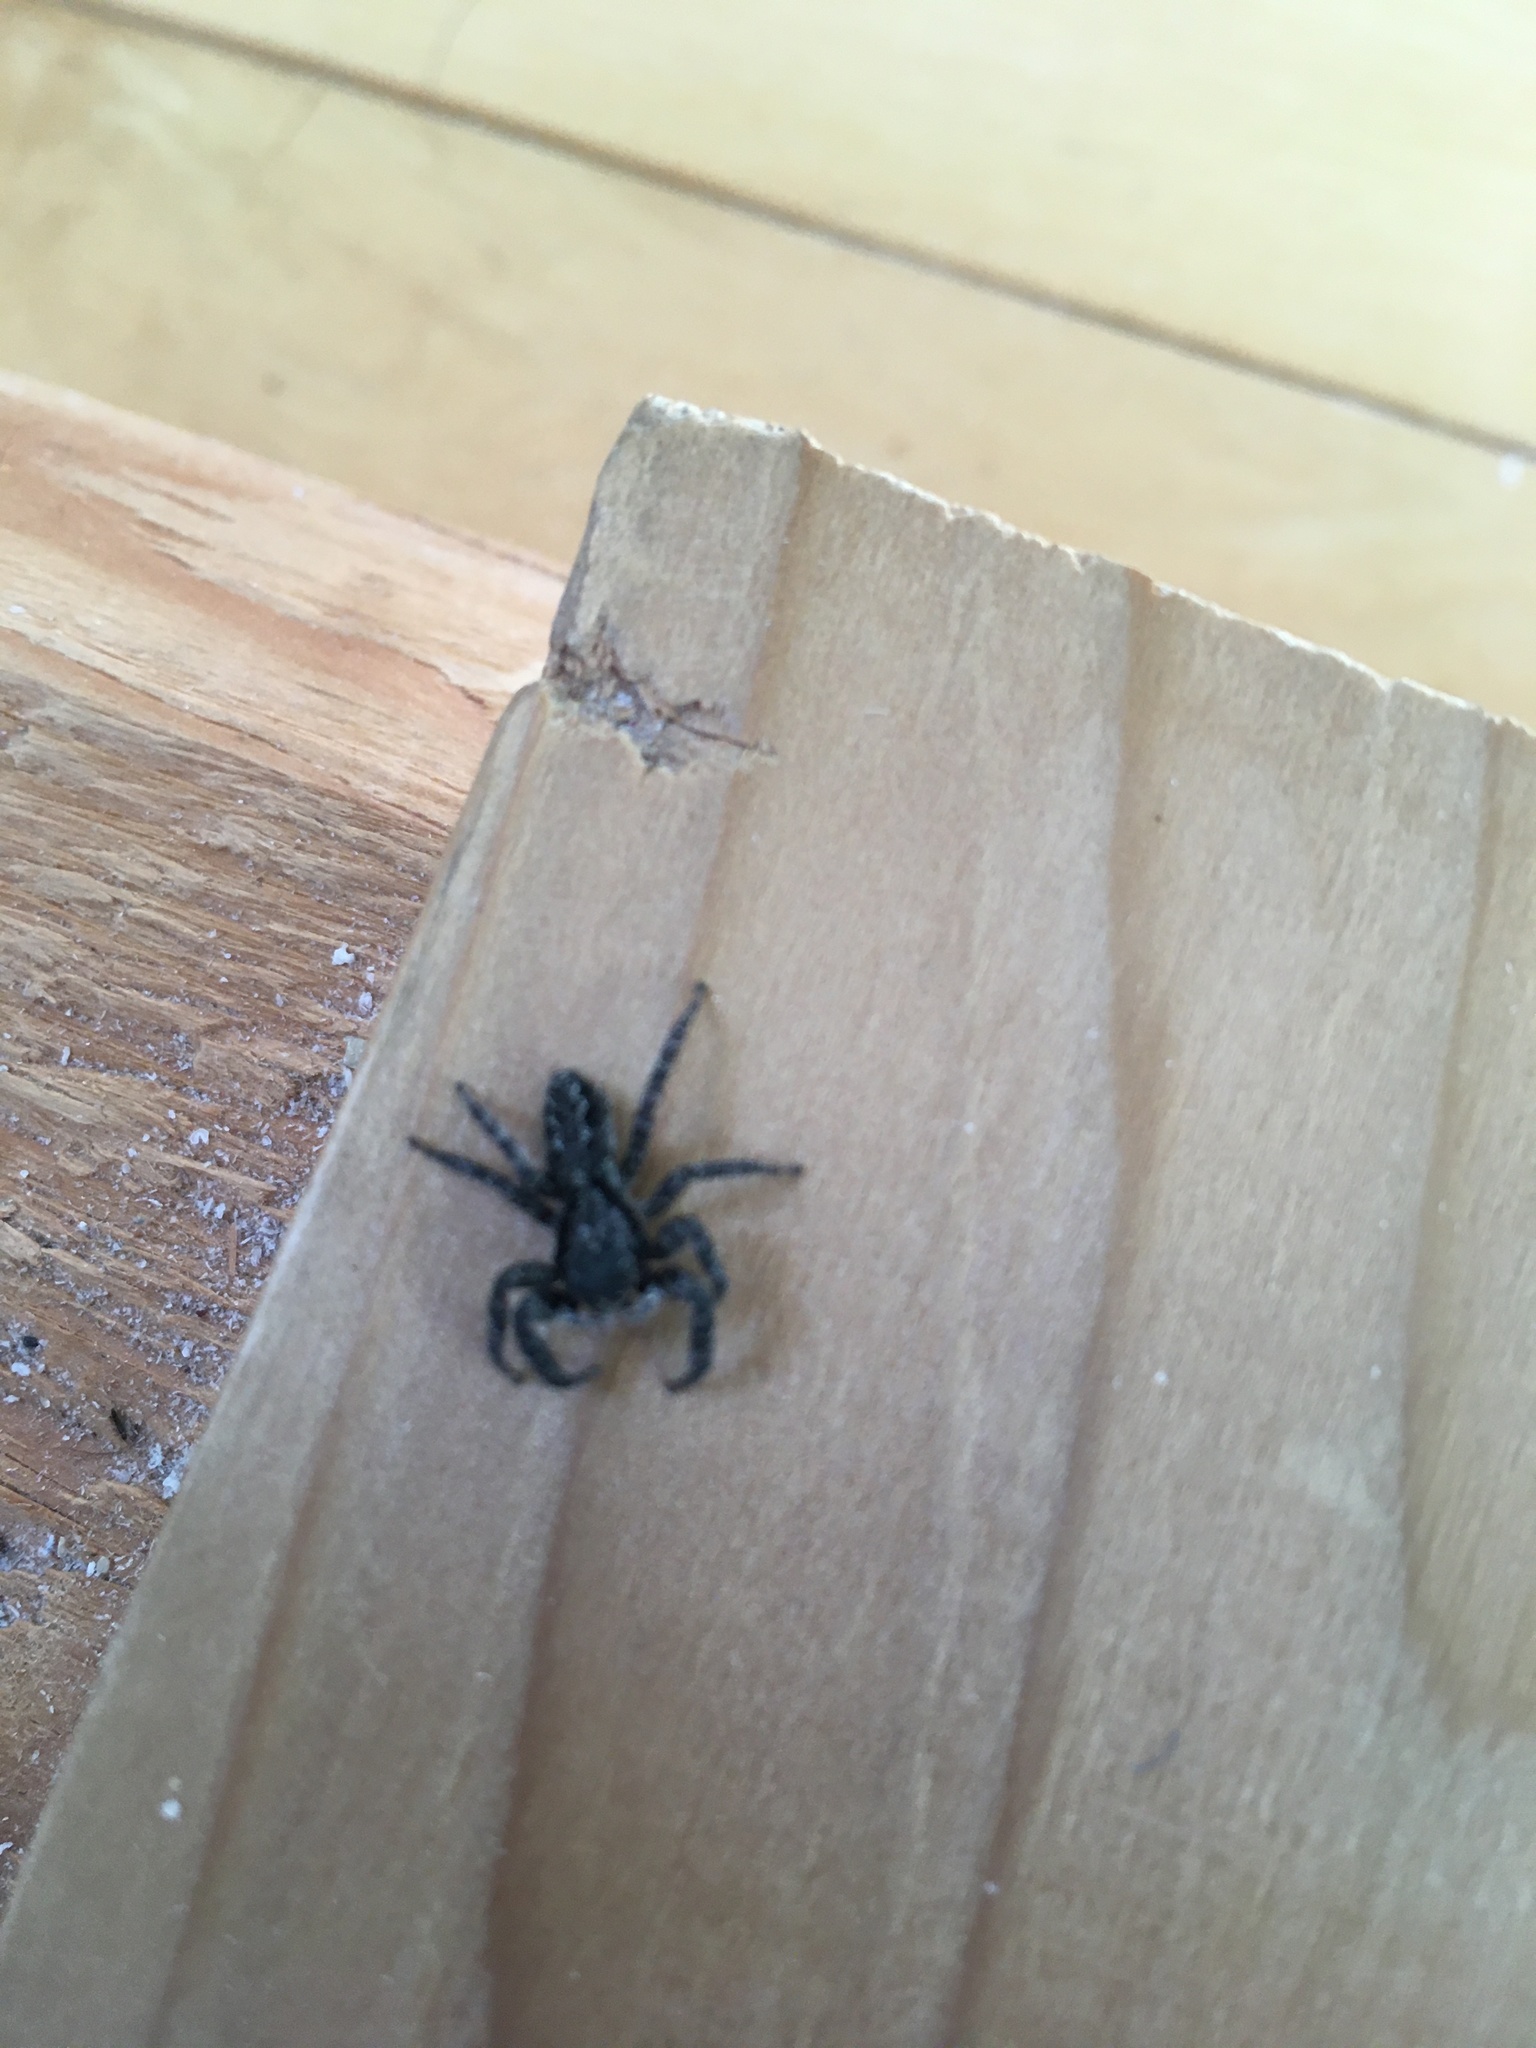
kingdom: Animalia
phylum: Arthropoda
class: Arachnida
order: Araneae
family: Salticidae
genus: Platycryptus
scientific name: Platycryptus californicus
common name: Jumping spiders
